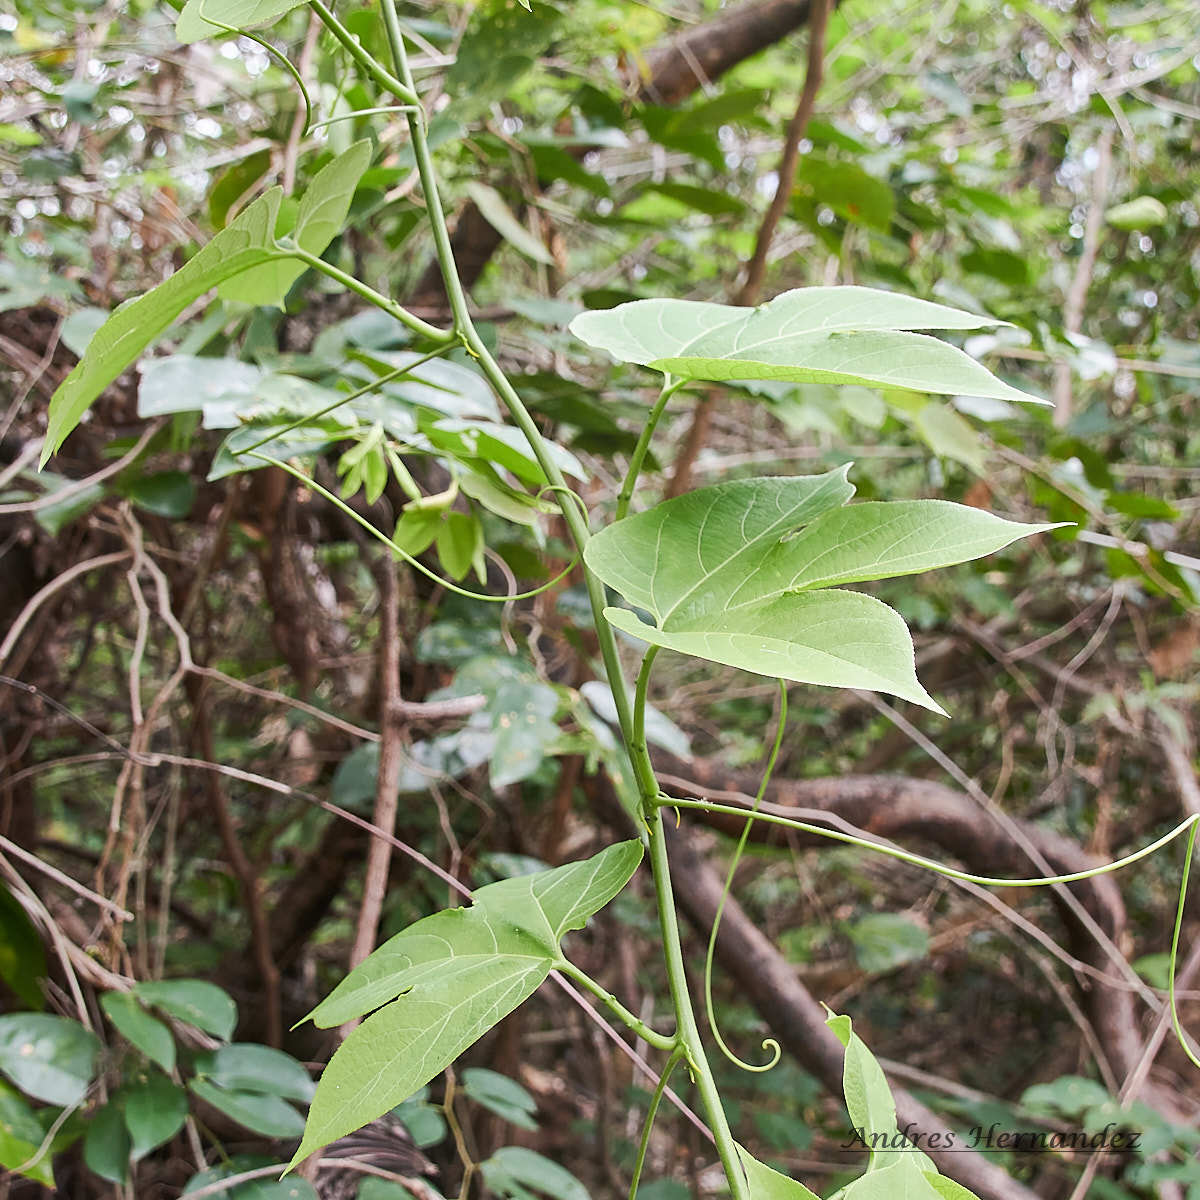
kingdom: Plantae
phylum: Tracheophyta
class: Magnoliopsida
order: Malpighiales
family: Passifloraceae
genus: Passiflora
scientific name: Passiflora platyloba
